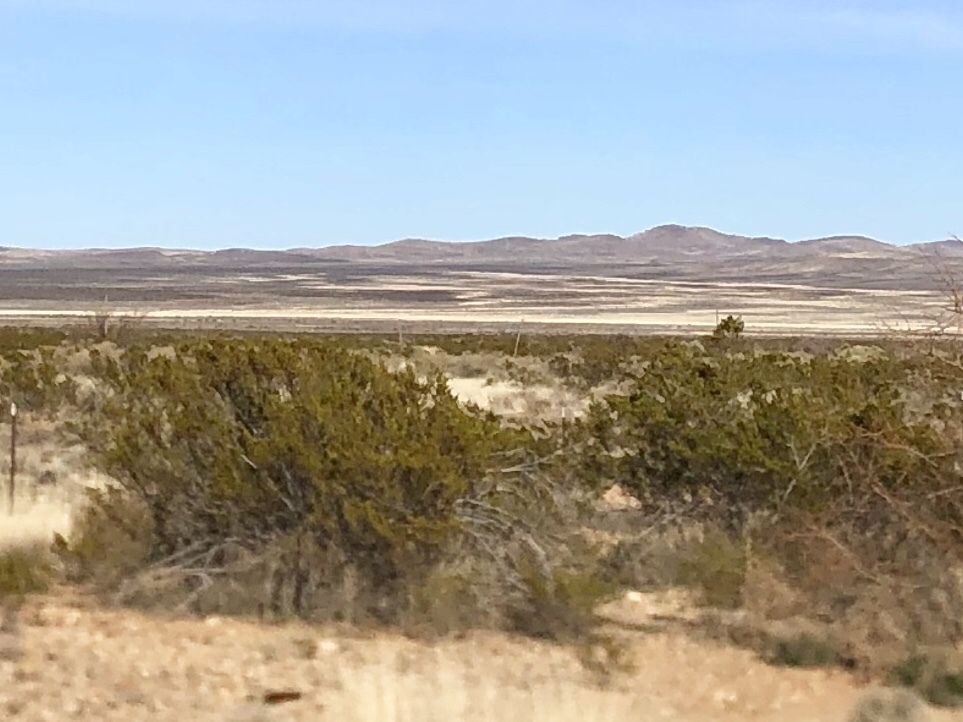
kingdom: Plantae
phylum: Tracheophyta
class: Magnoliopsida
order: Zygophyllales
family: Zygophyllaceae
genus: Larrea
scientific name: Larrea tridentata
